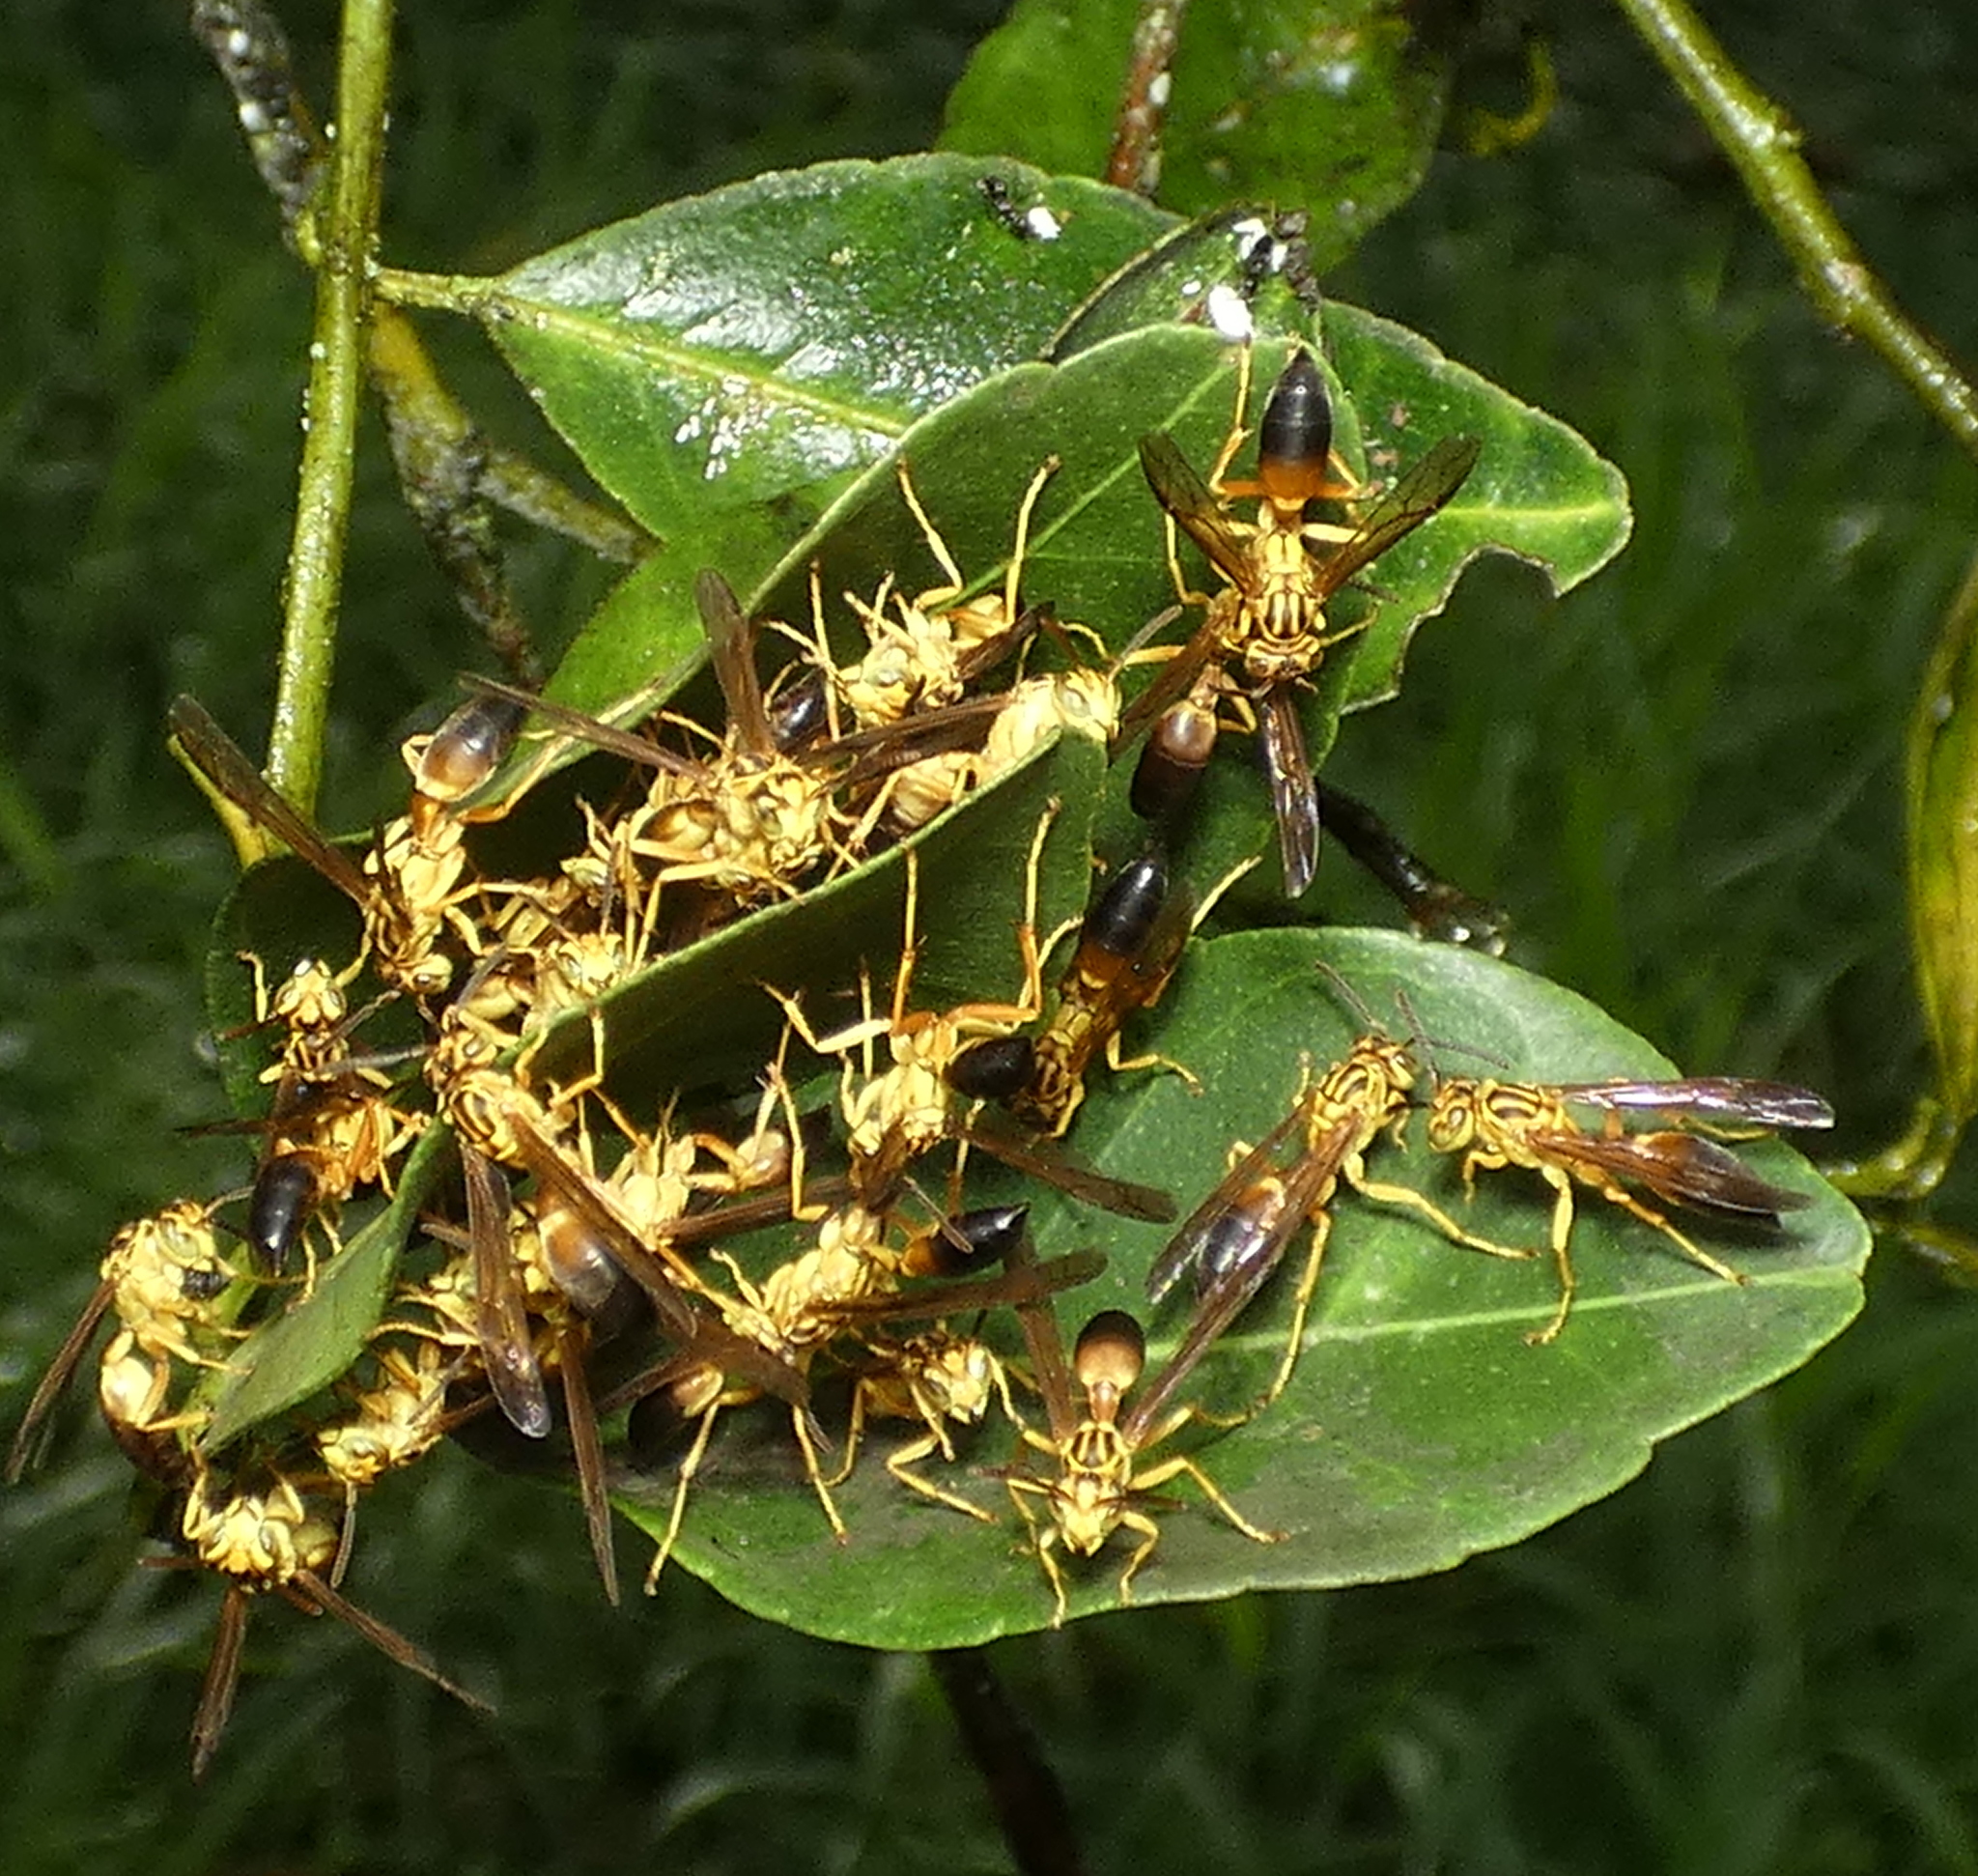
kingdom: Animalia
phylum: Arthropoda
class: Insecta
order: Hymenoptera
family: Vespidae
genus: Agelaia
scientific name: Agelaia pallipes
